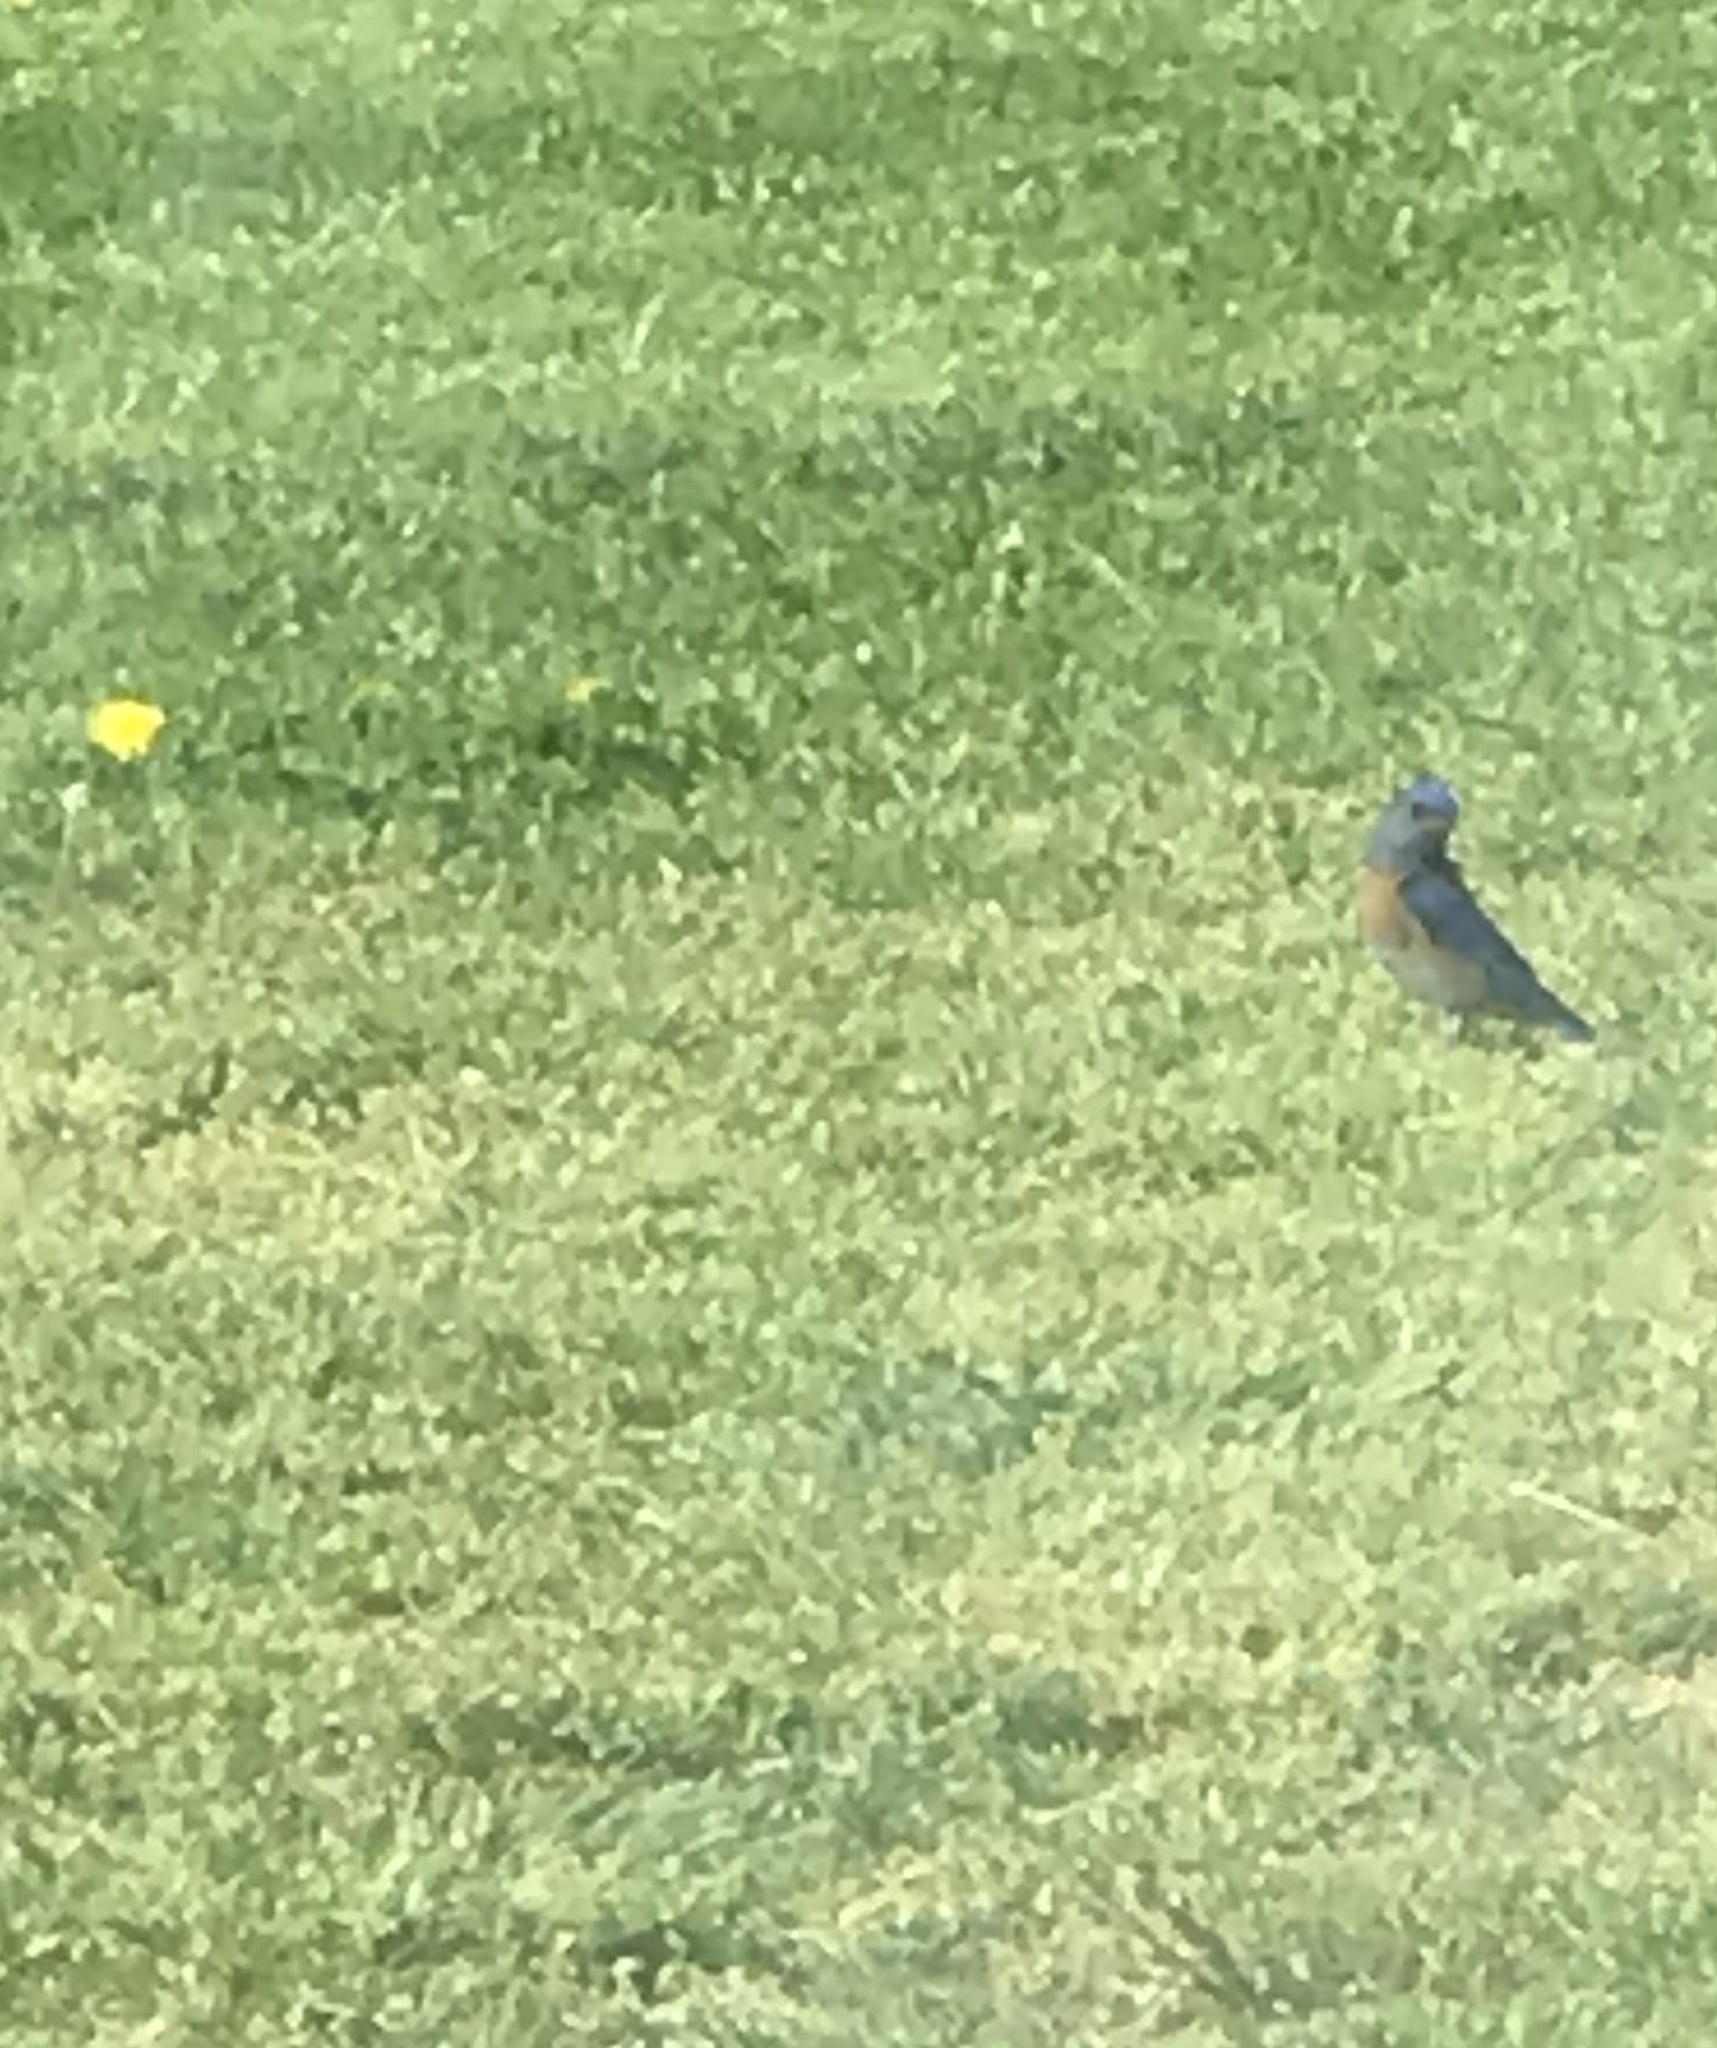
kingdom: Animalia
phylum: Chordata
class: Aves
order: Passeriformes
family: Turdidae
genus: Sialia
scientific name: Sialia mexicana
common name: Western bluebird
